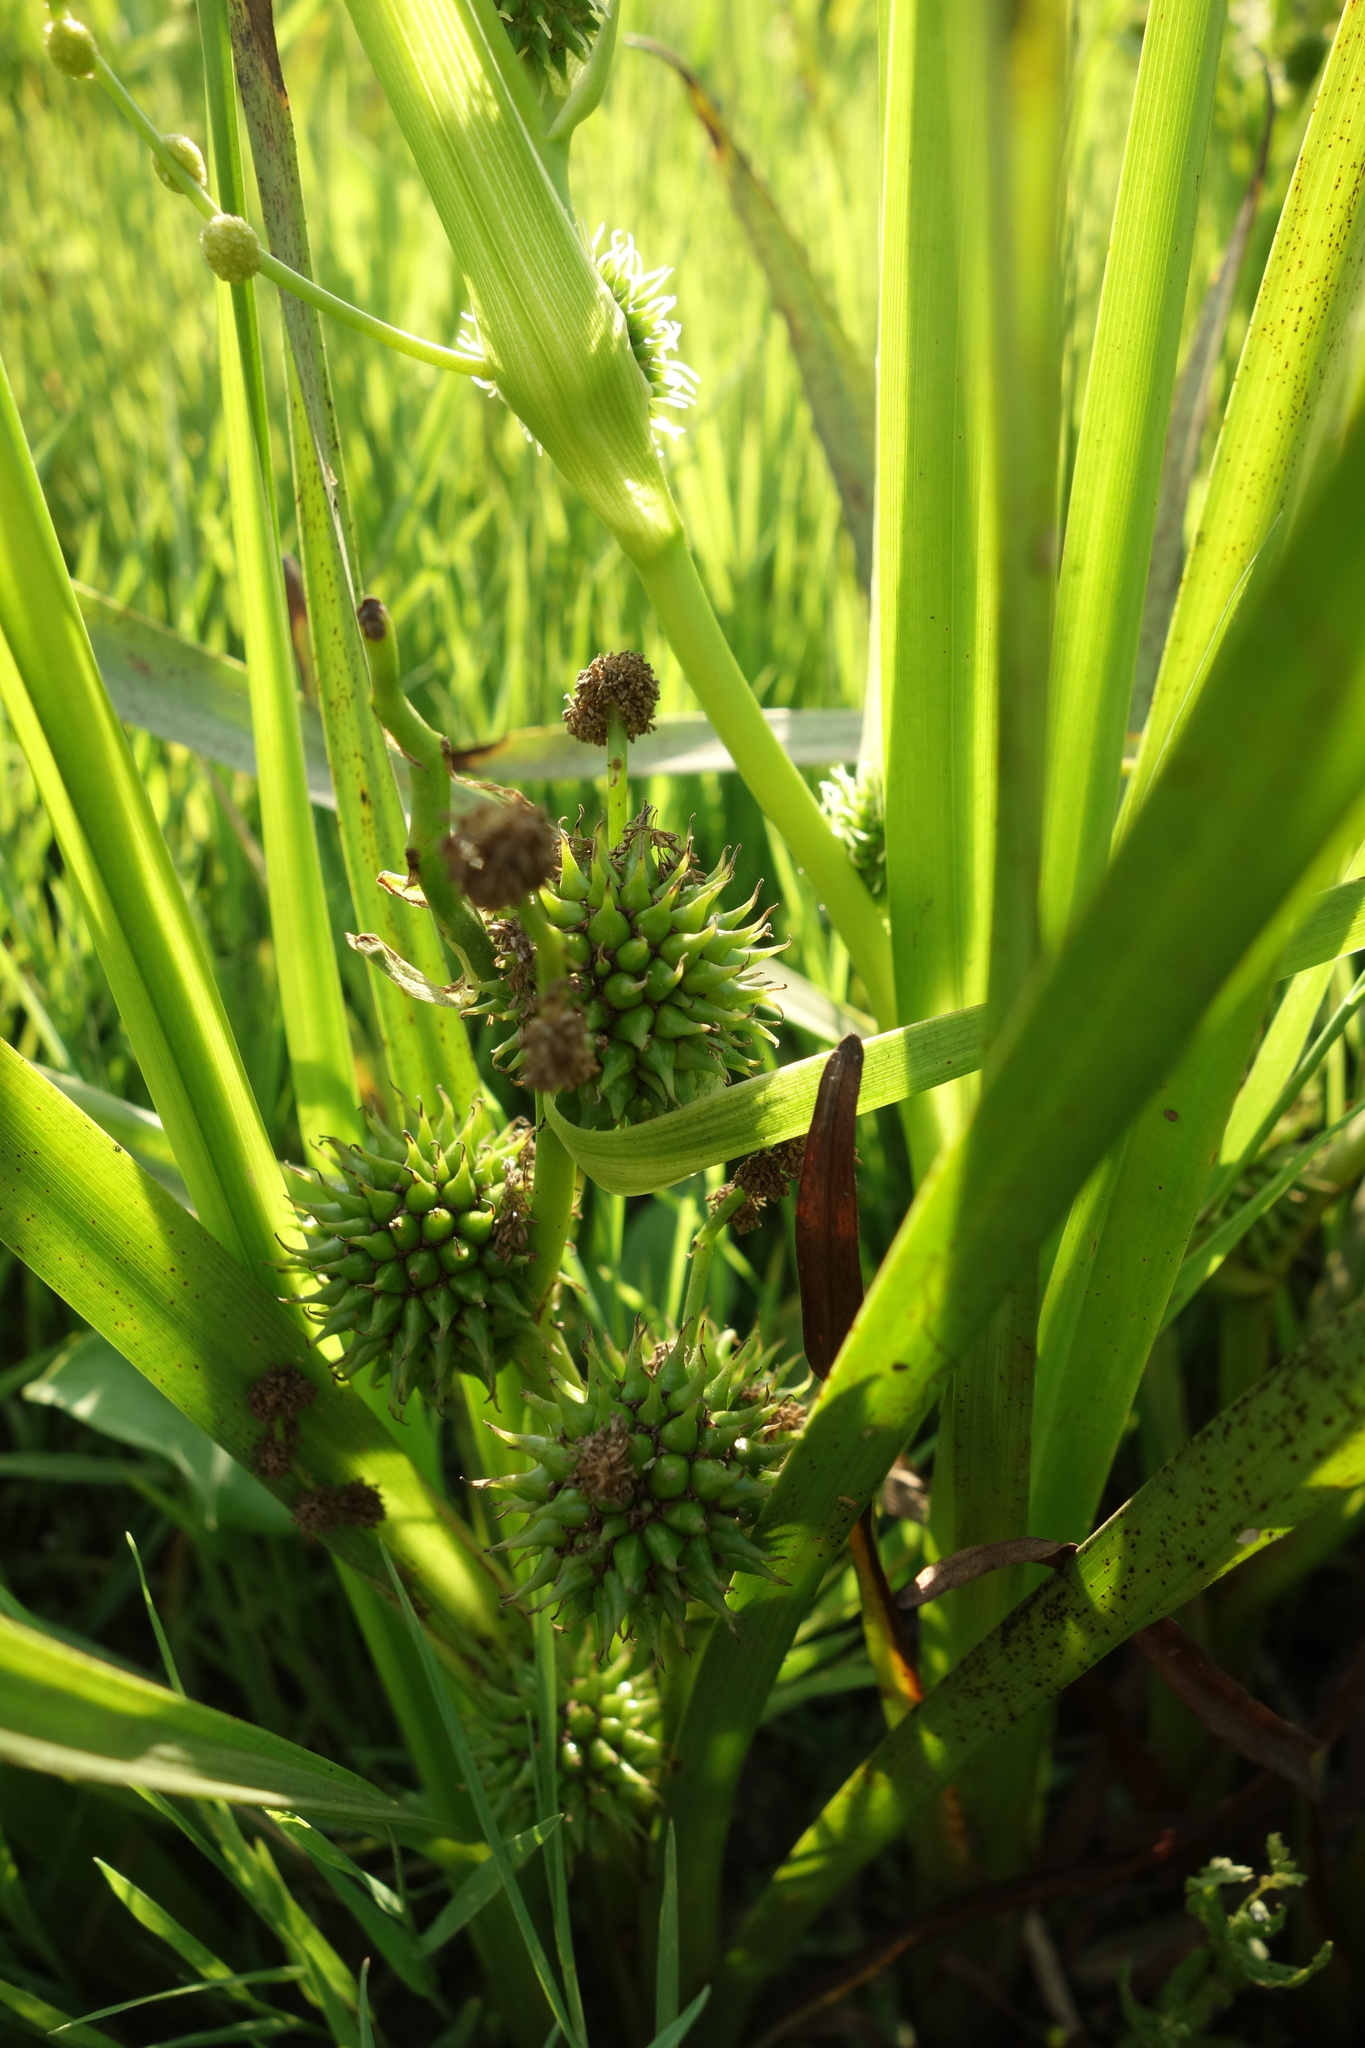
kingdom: Plantae
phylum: Tracheophyta
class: Liliopsida
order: Poales
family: Typhaceae
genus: Sparganium
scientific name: Sparganium erectum
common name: Branched bur-reed
